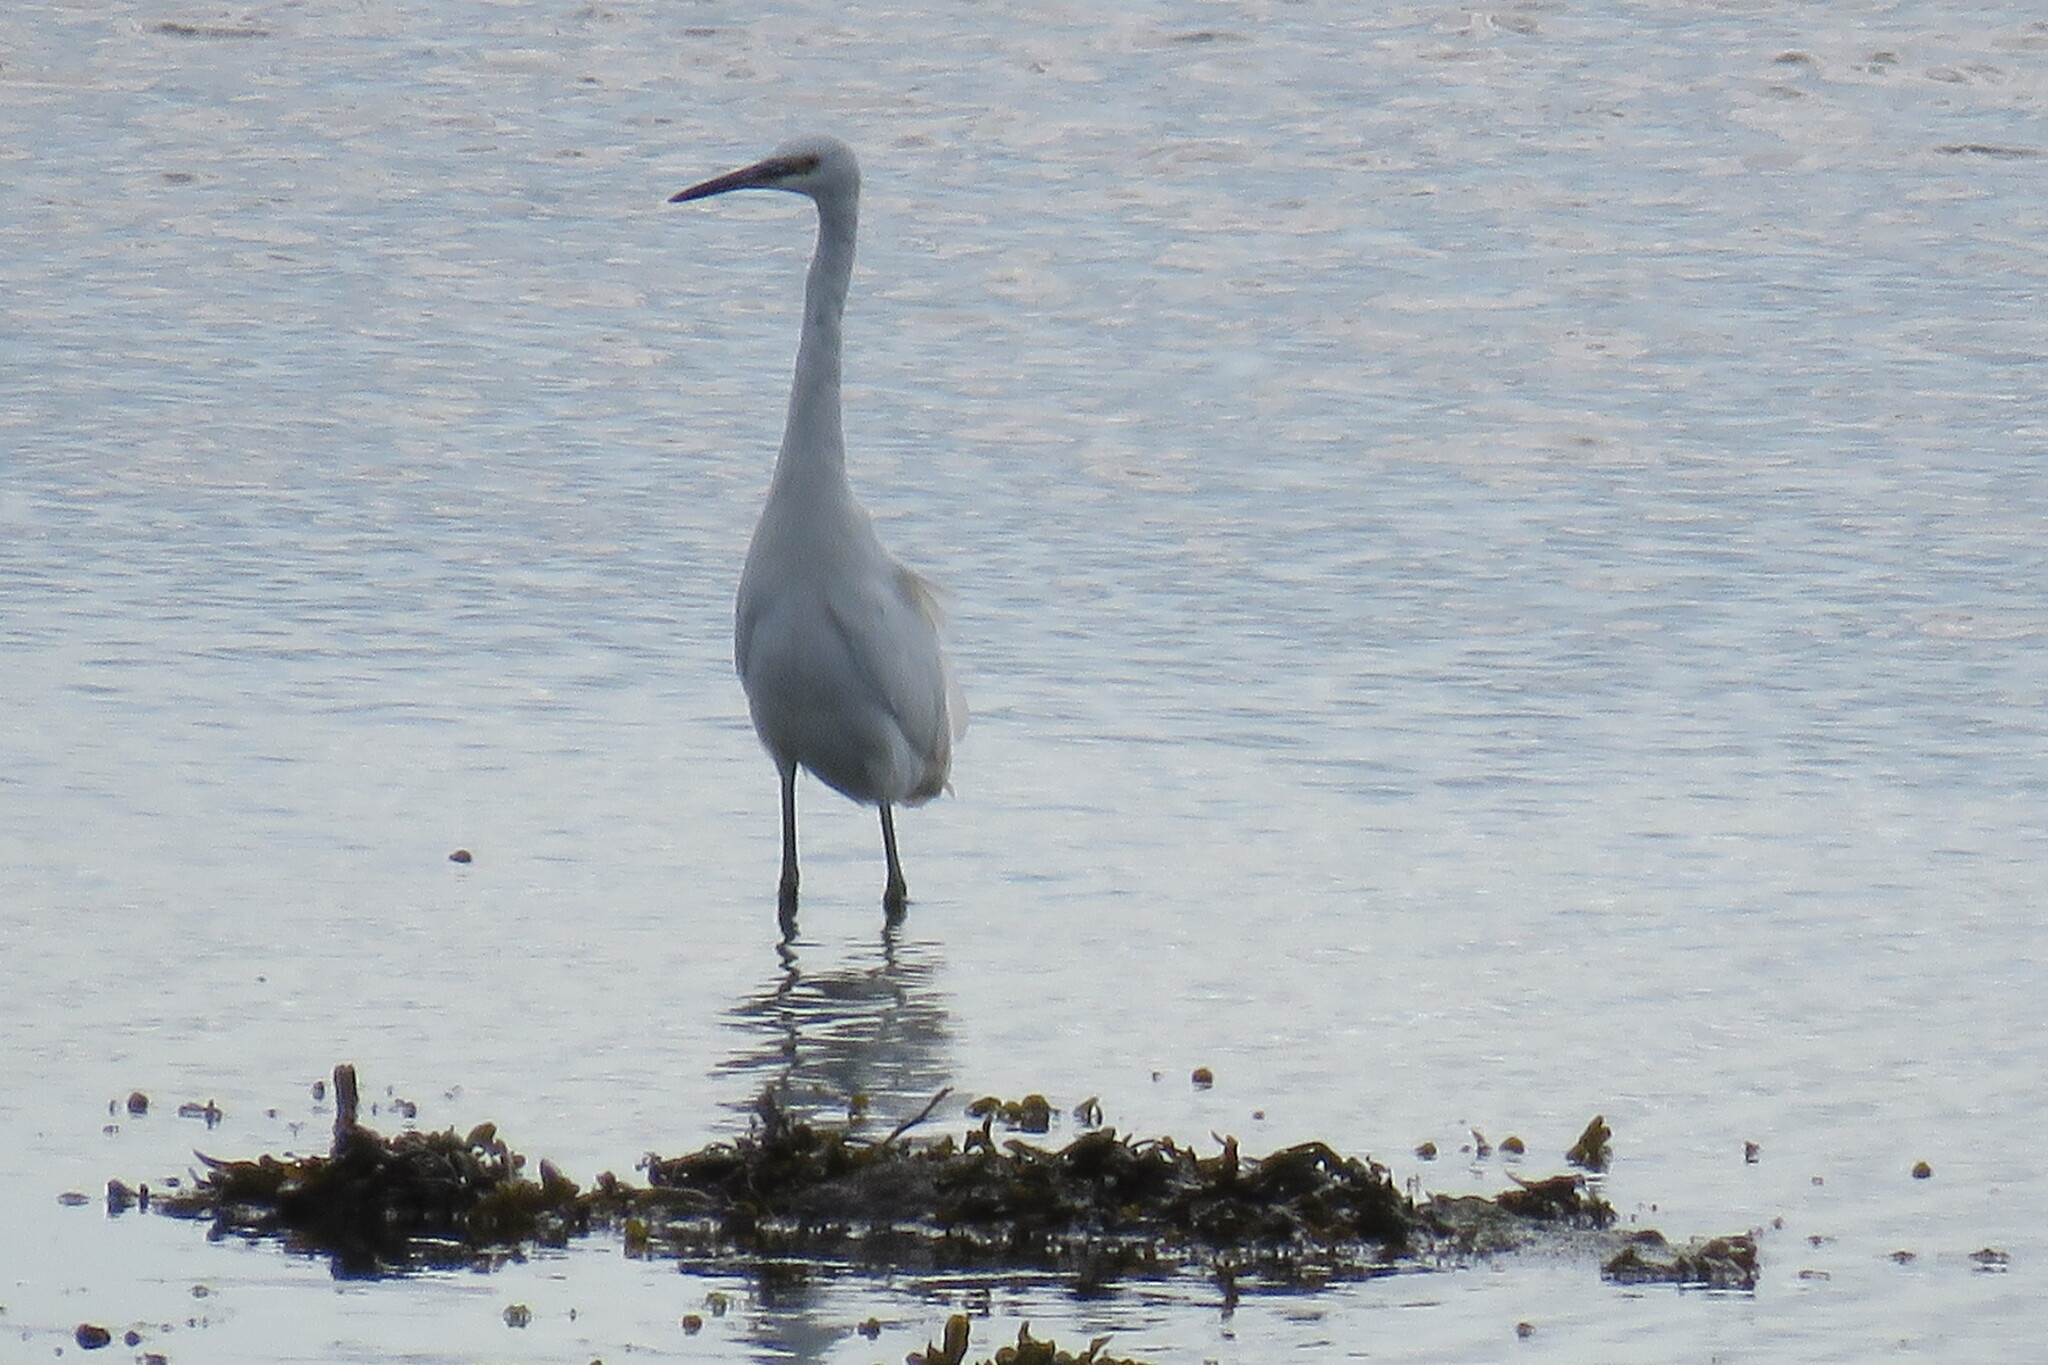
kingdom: Animalia
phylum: Chordata
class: Aves
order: Pelecaniformes
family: Ardeidae
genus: Egretta
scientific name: Egretta garzetta
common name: Little egret
